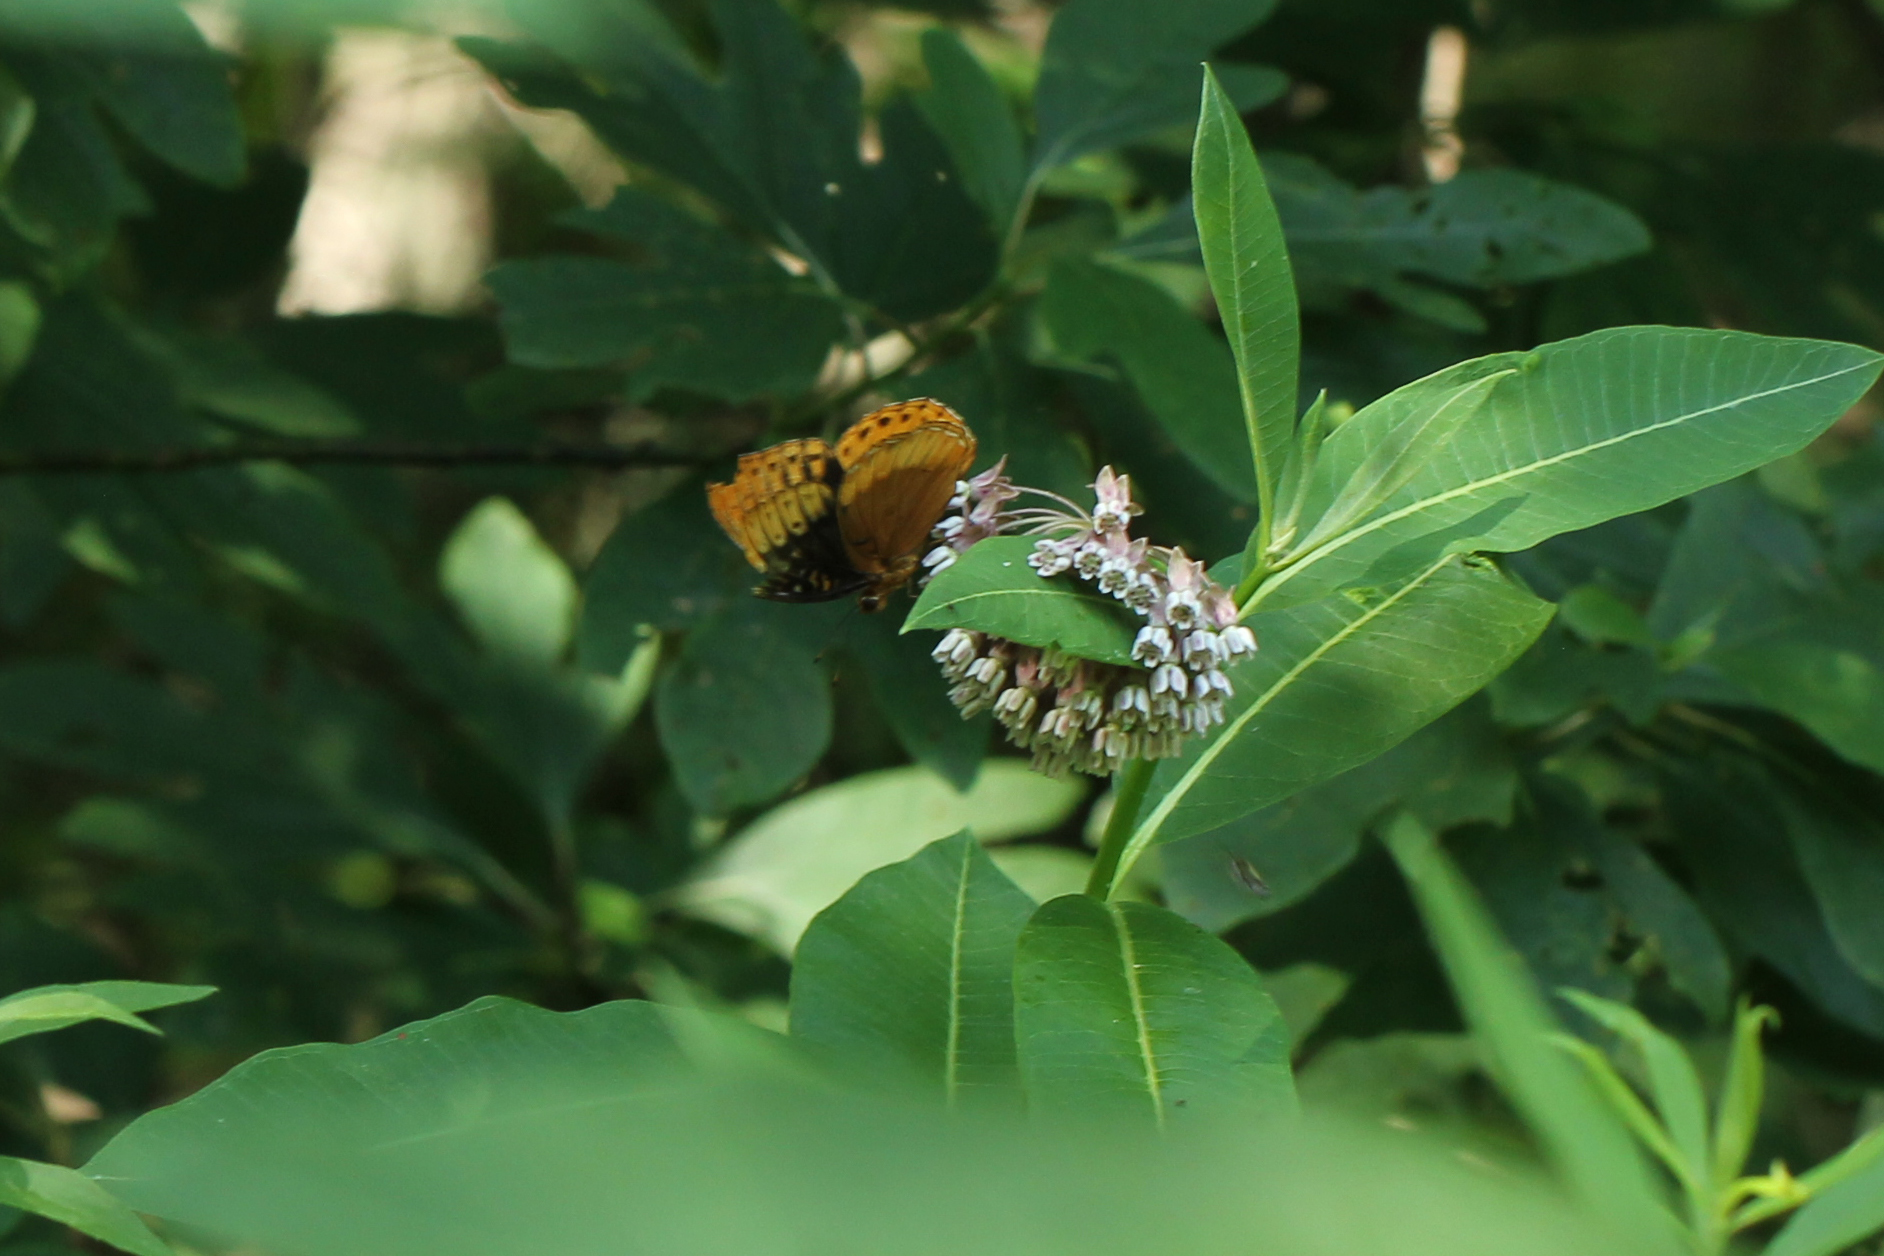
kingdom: Animalia
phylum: Arthropoda
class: Insecta
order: Lepidoptera
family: Nymphalidae
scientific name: Nymphalidae
